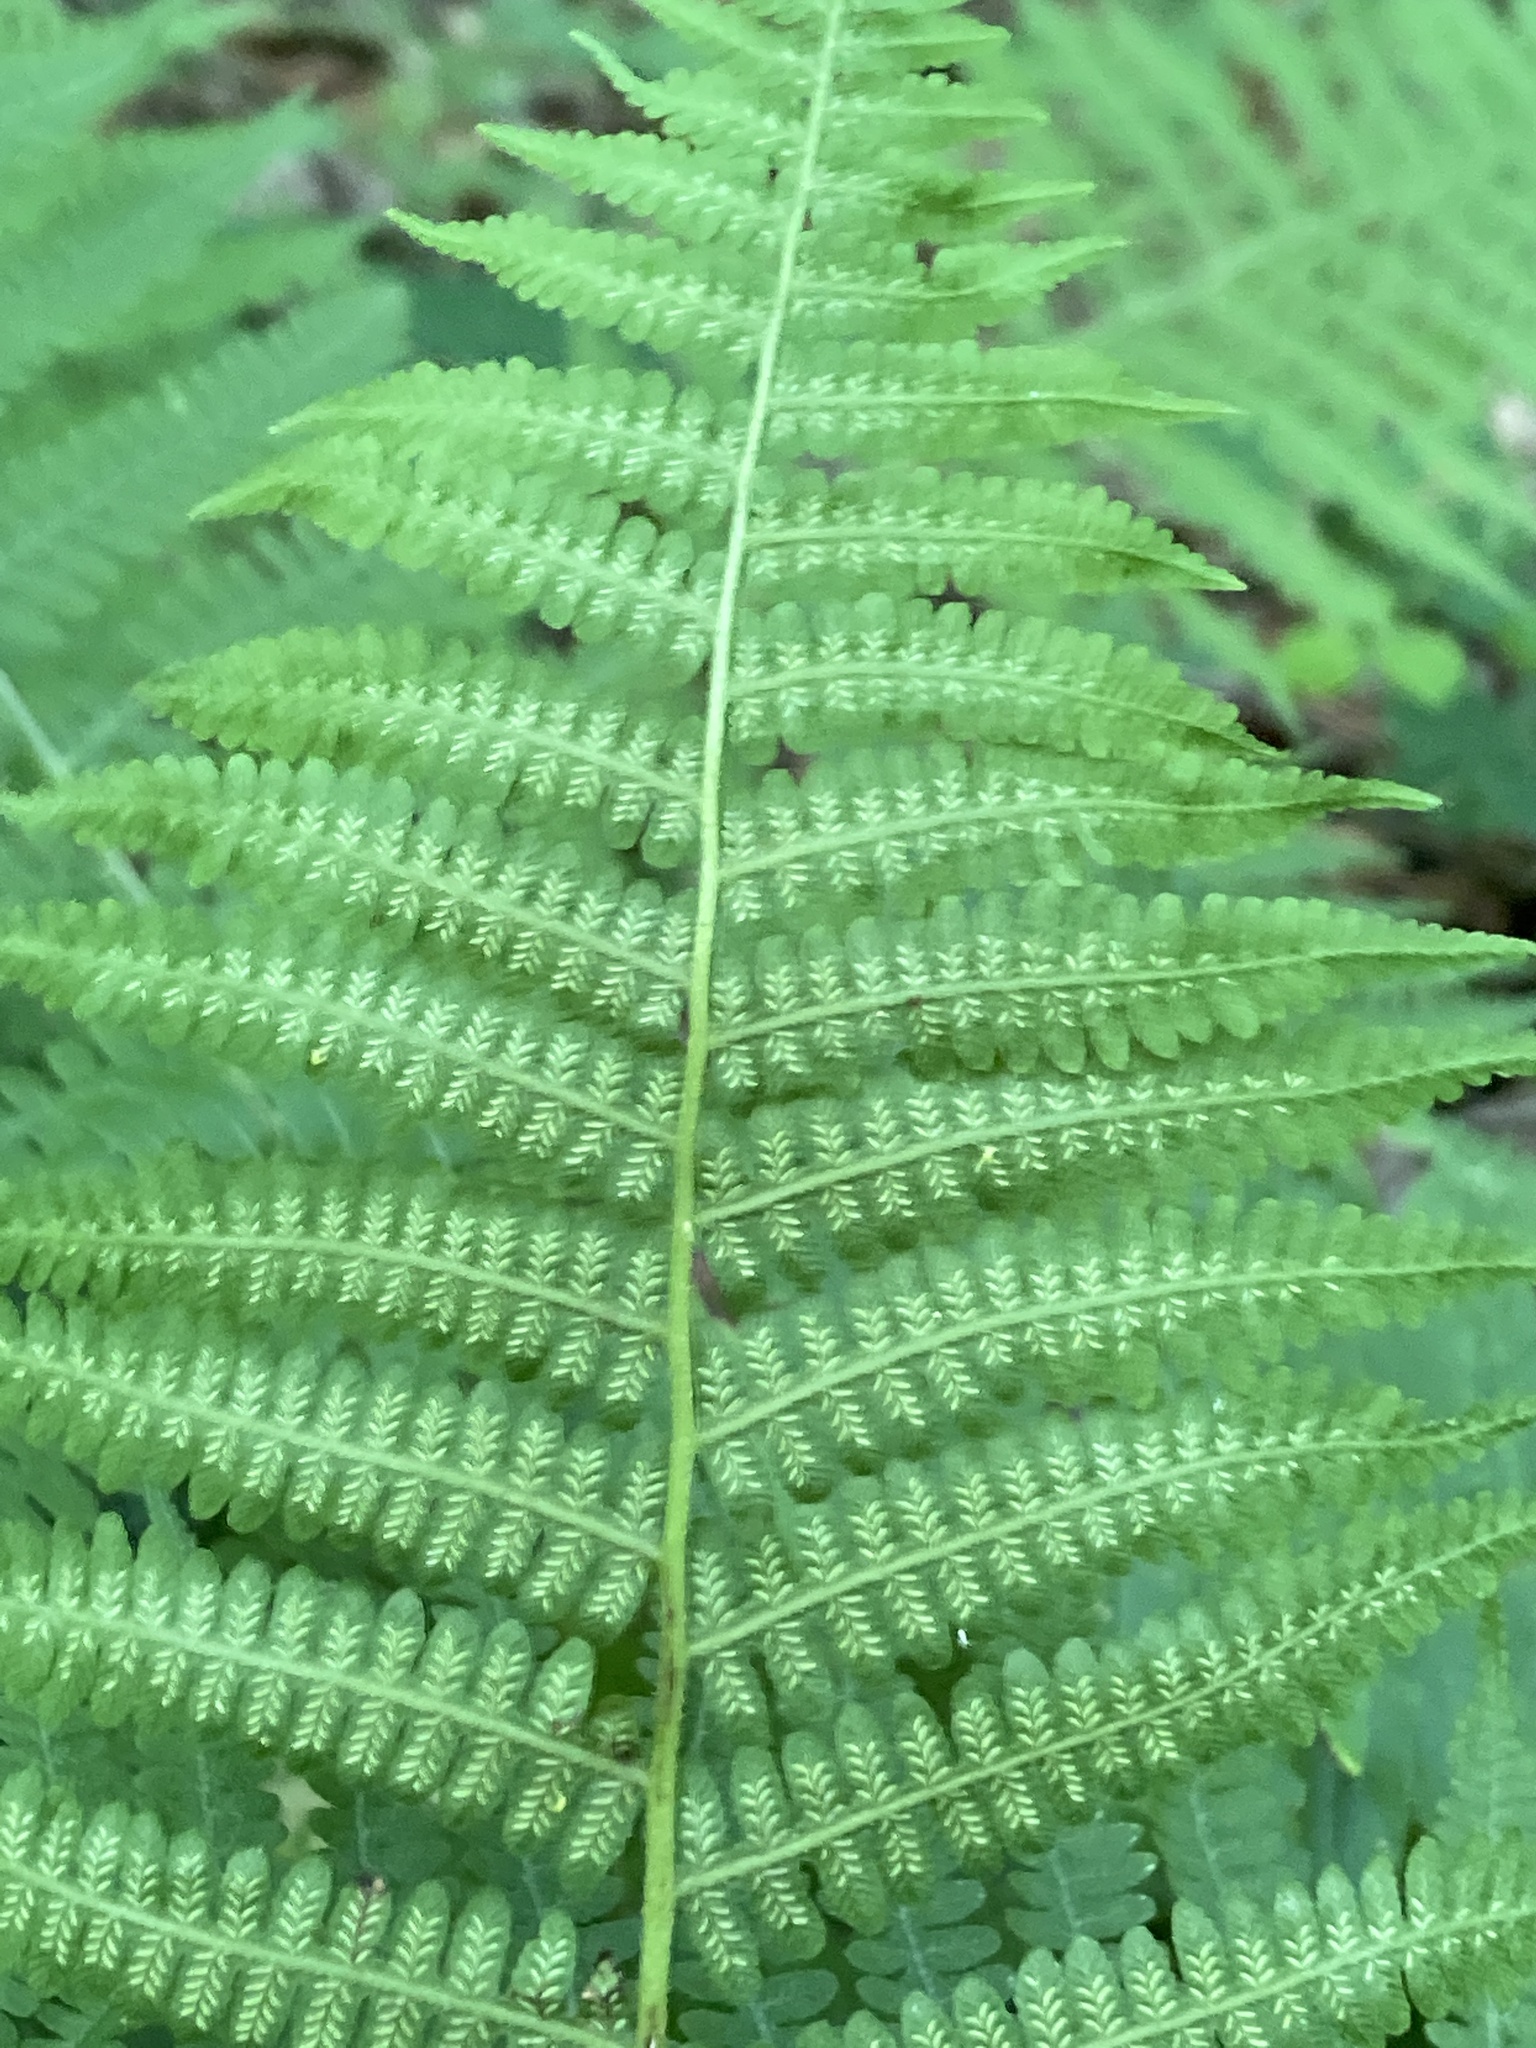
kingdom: Plantae
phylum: Tracheophyta
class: Polypodiopsida
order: Polypodiales
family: Athyriaceae
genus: Deparia
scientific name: Deparia acrostichoides
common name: Silver false spleenwort
